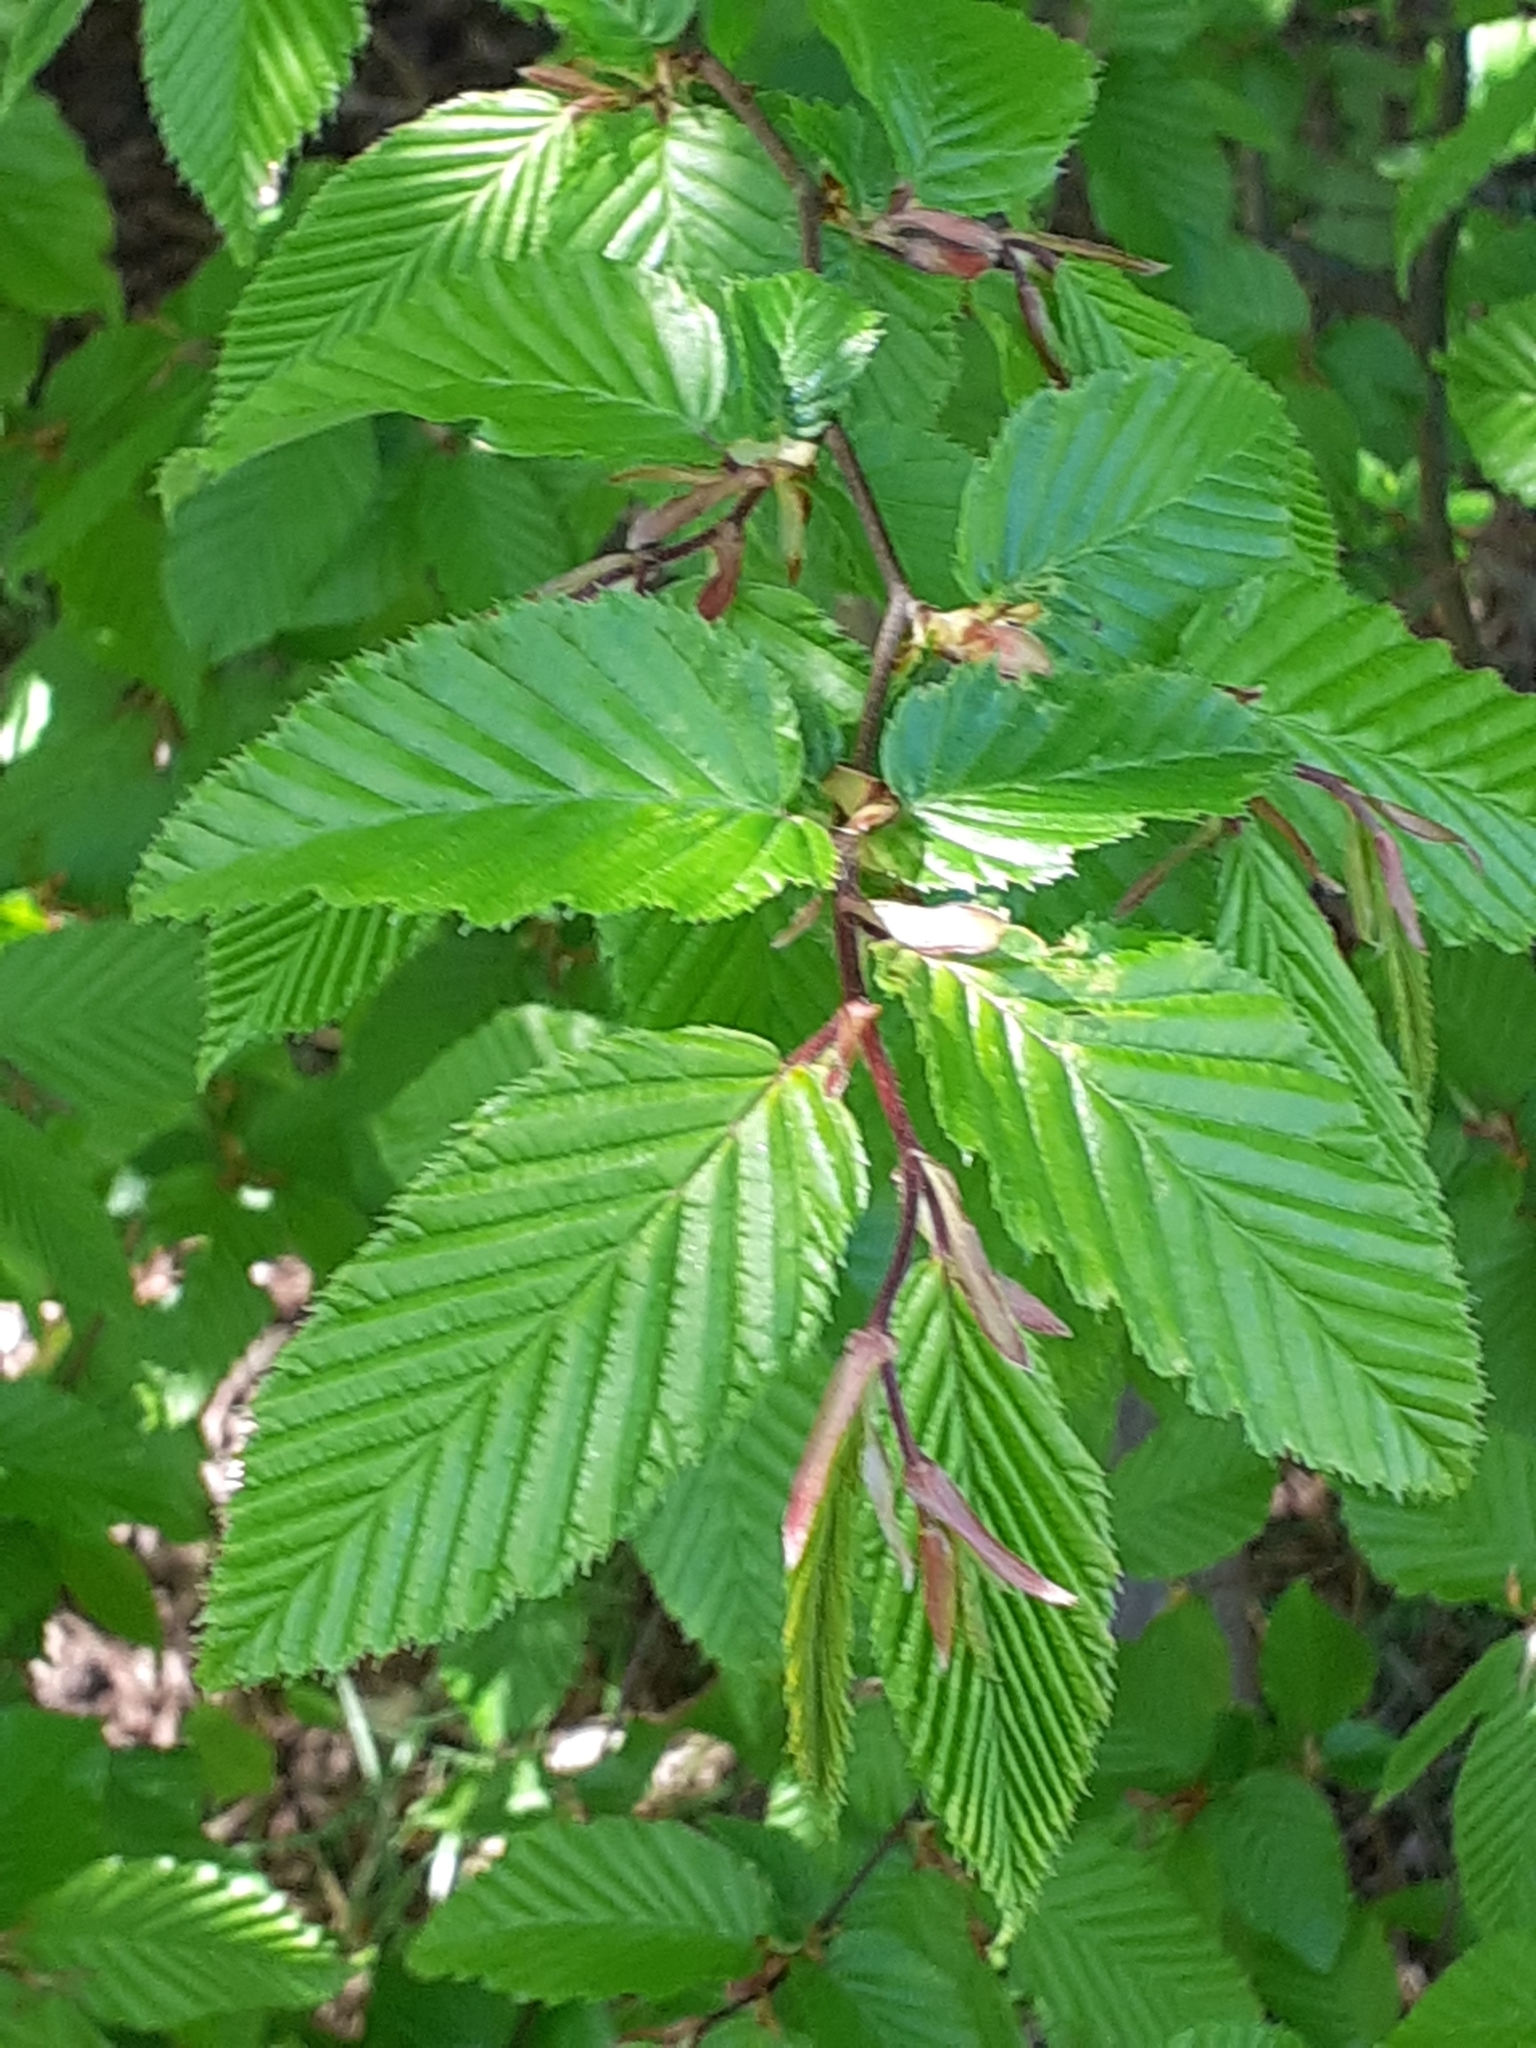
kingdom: Plantae
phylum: Tracheophyta
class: Magnoliopsida
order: Fagales
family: Betulaceae
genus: Carpinus
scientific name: Carpinus betulus
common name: Hornbeam
